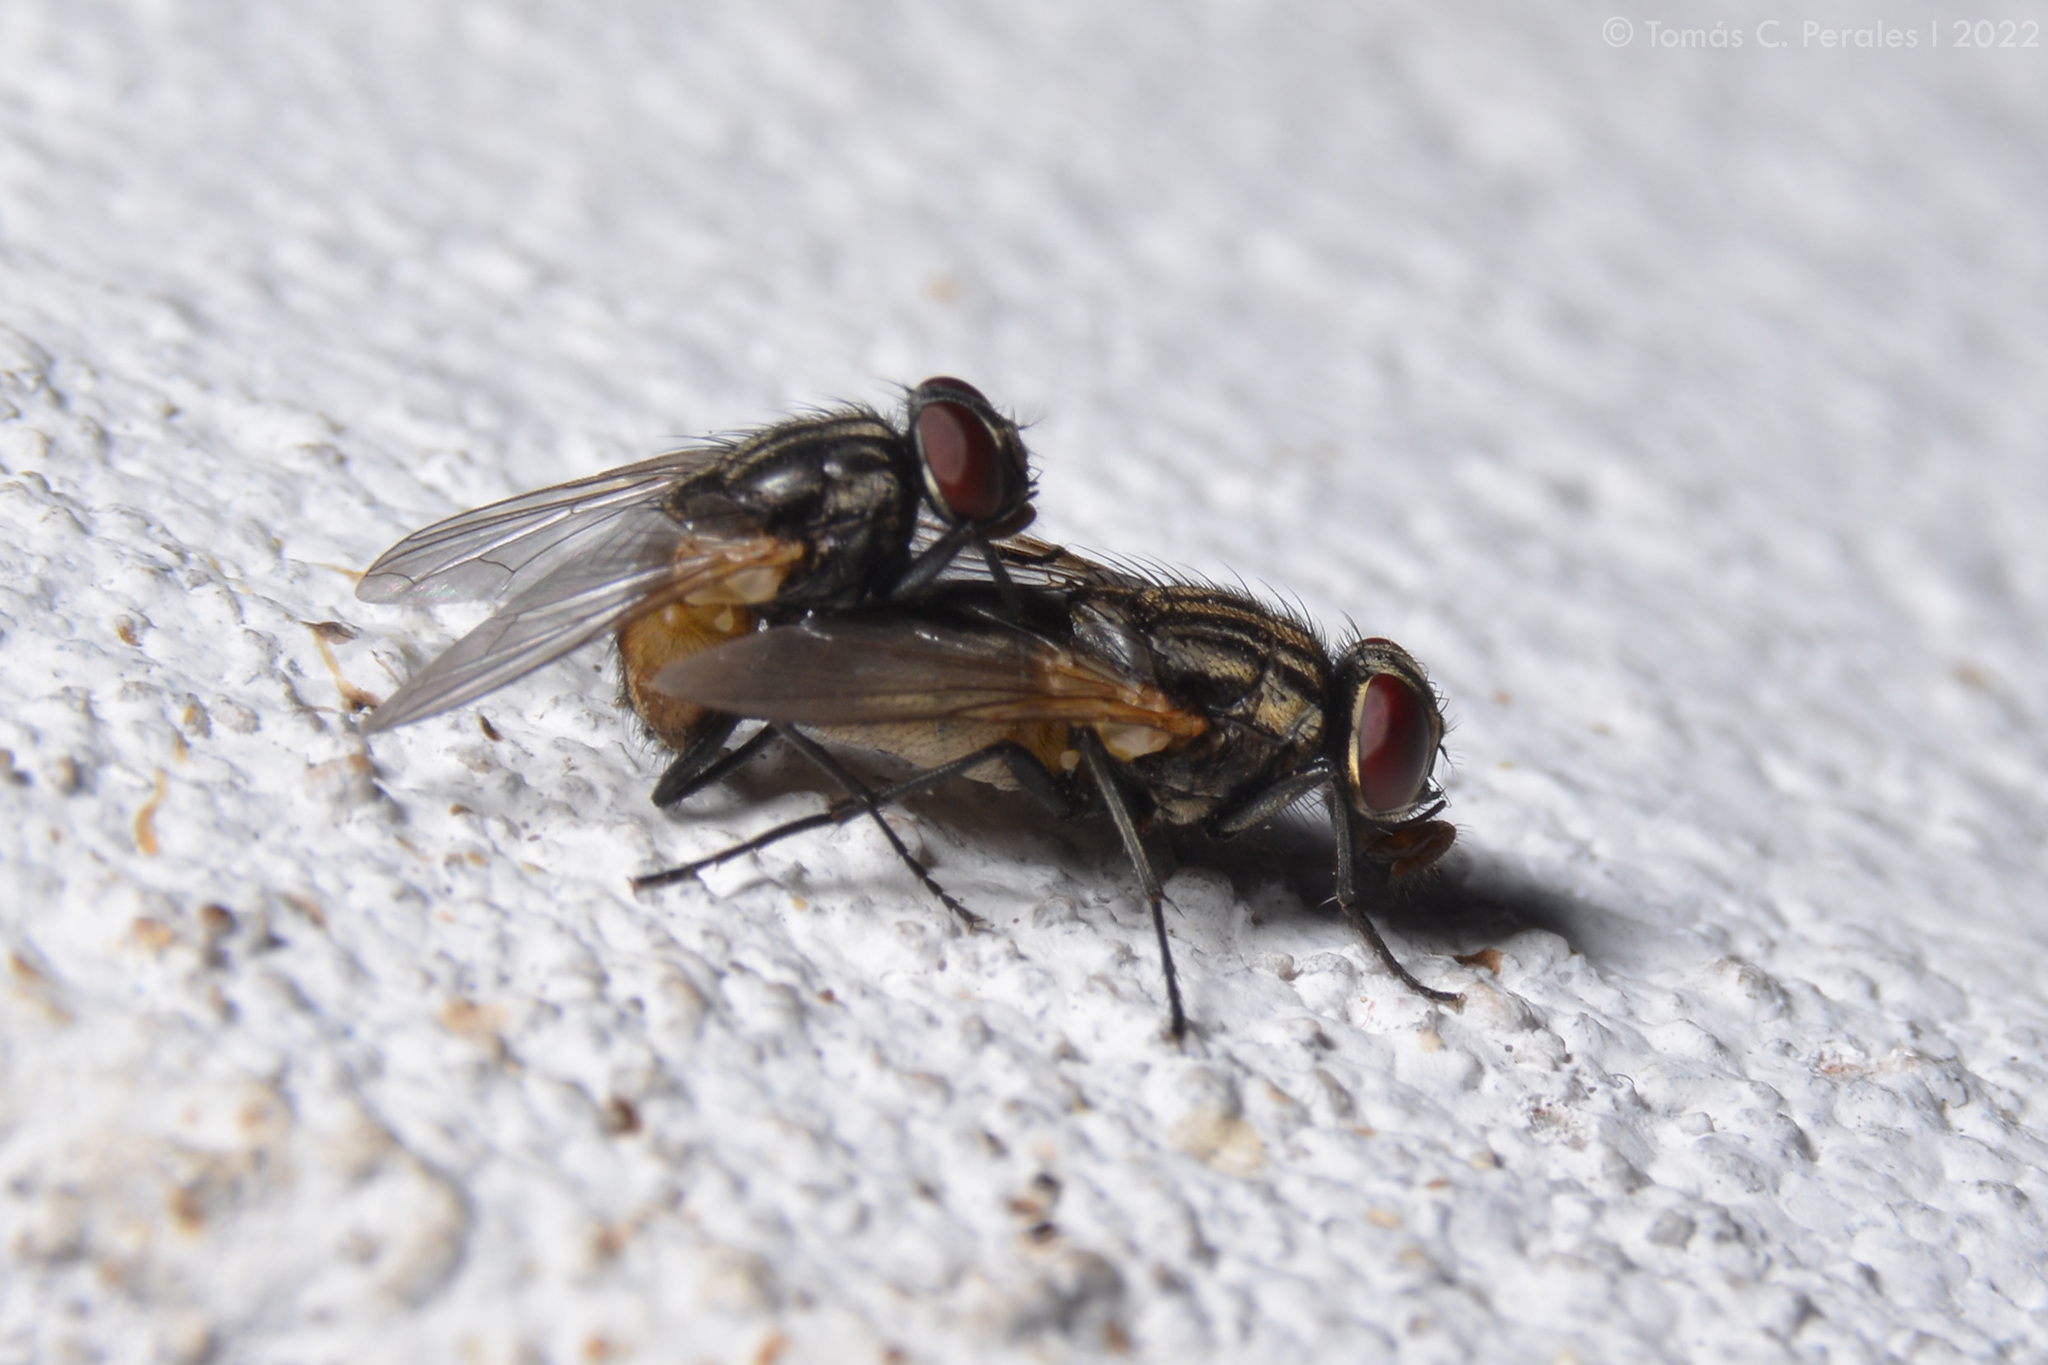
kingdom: Animalia
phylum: Arthropoda
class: Insecta
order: Diptera
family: Muscidae
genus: Musca
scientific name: Musca domestica
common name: House fly
